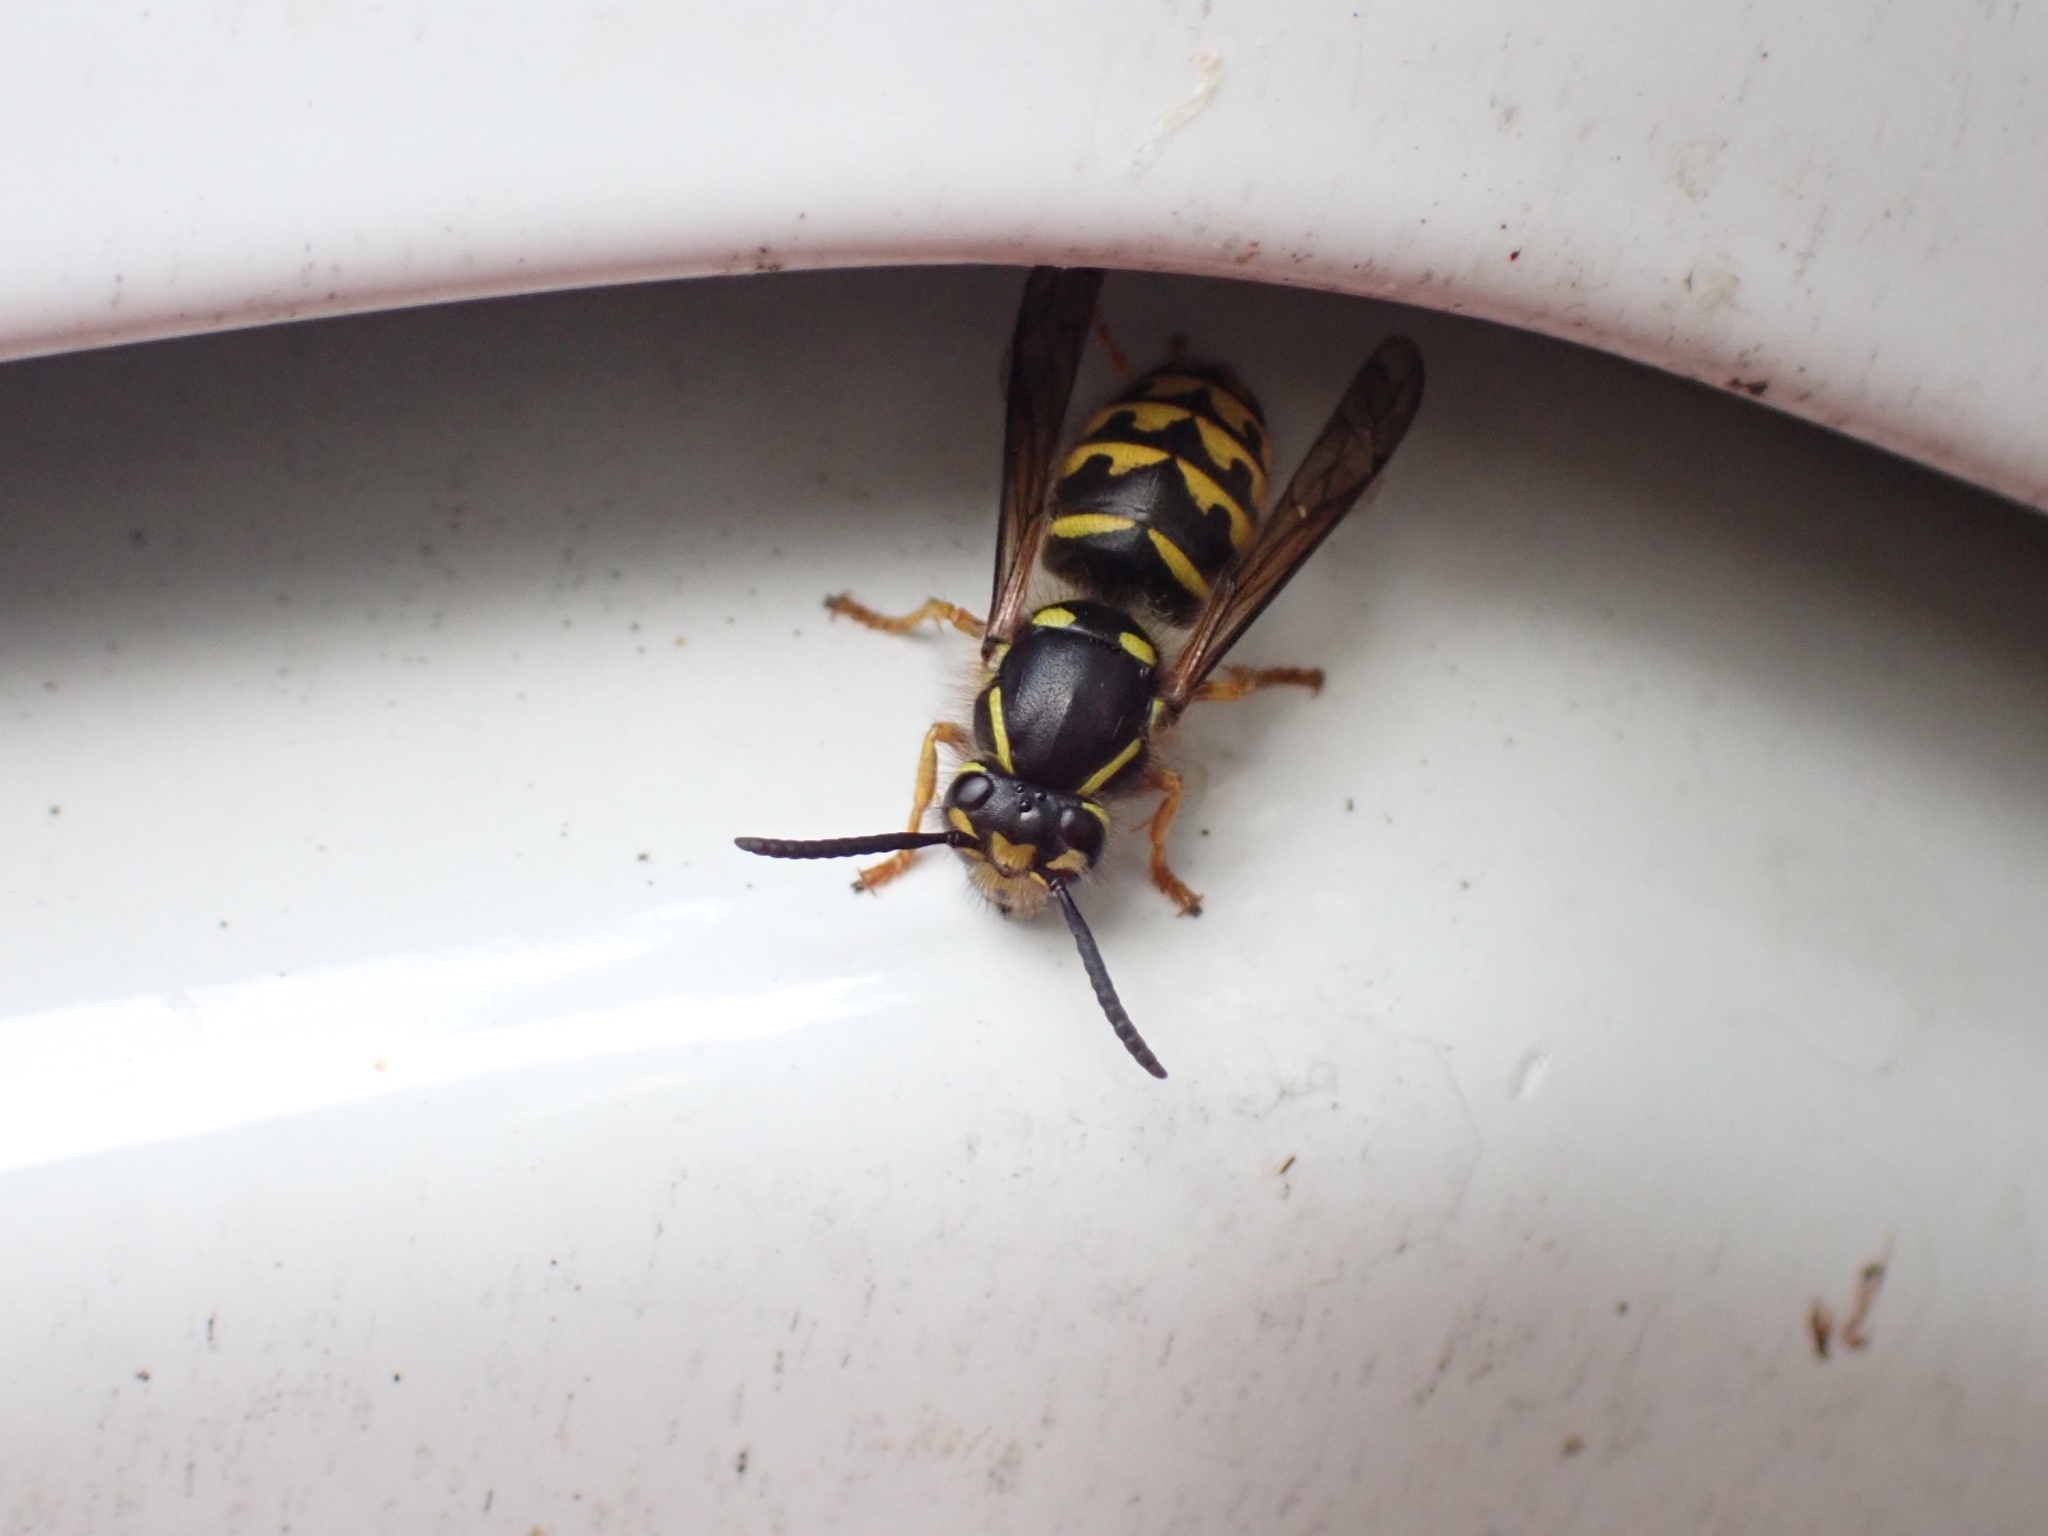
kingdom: Animalia
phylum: Arthropoda
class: Insecta
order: Hymenoptera
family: Vespidae
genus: Dolichovespula
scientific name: Dolichovespula arenaria
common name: Aerial yellowjacket
